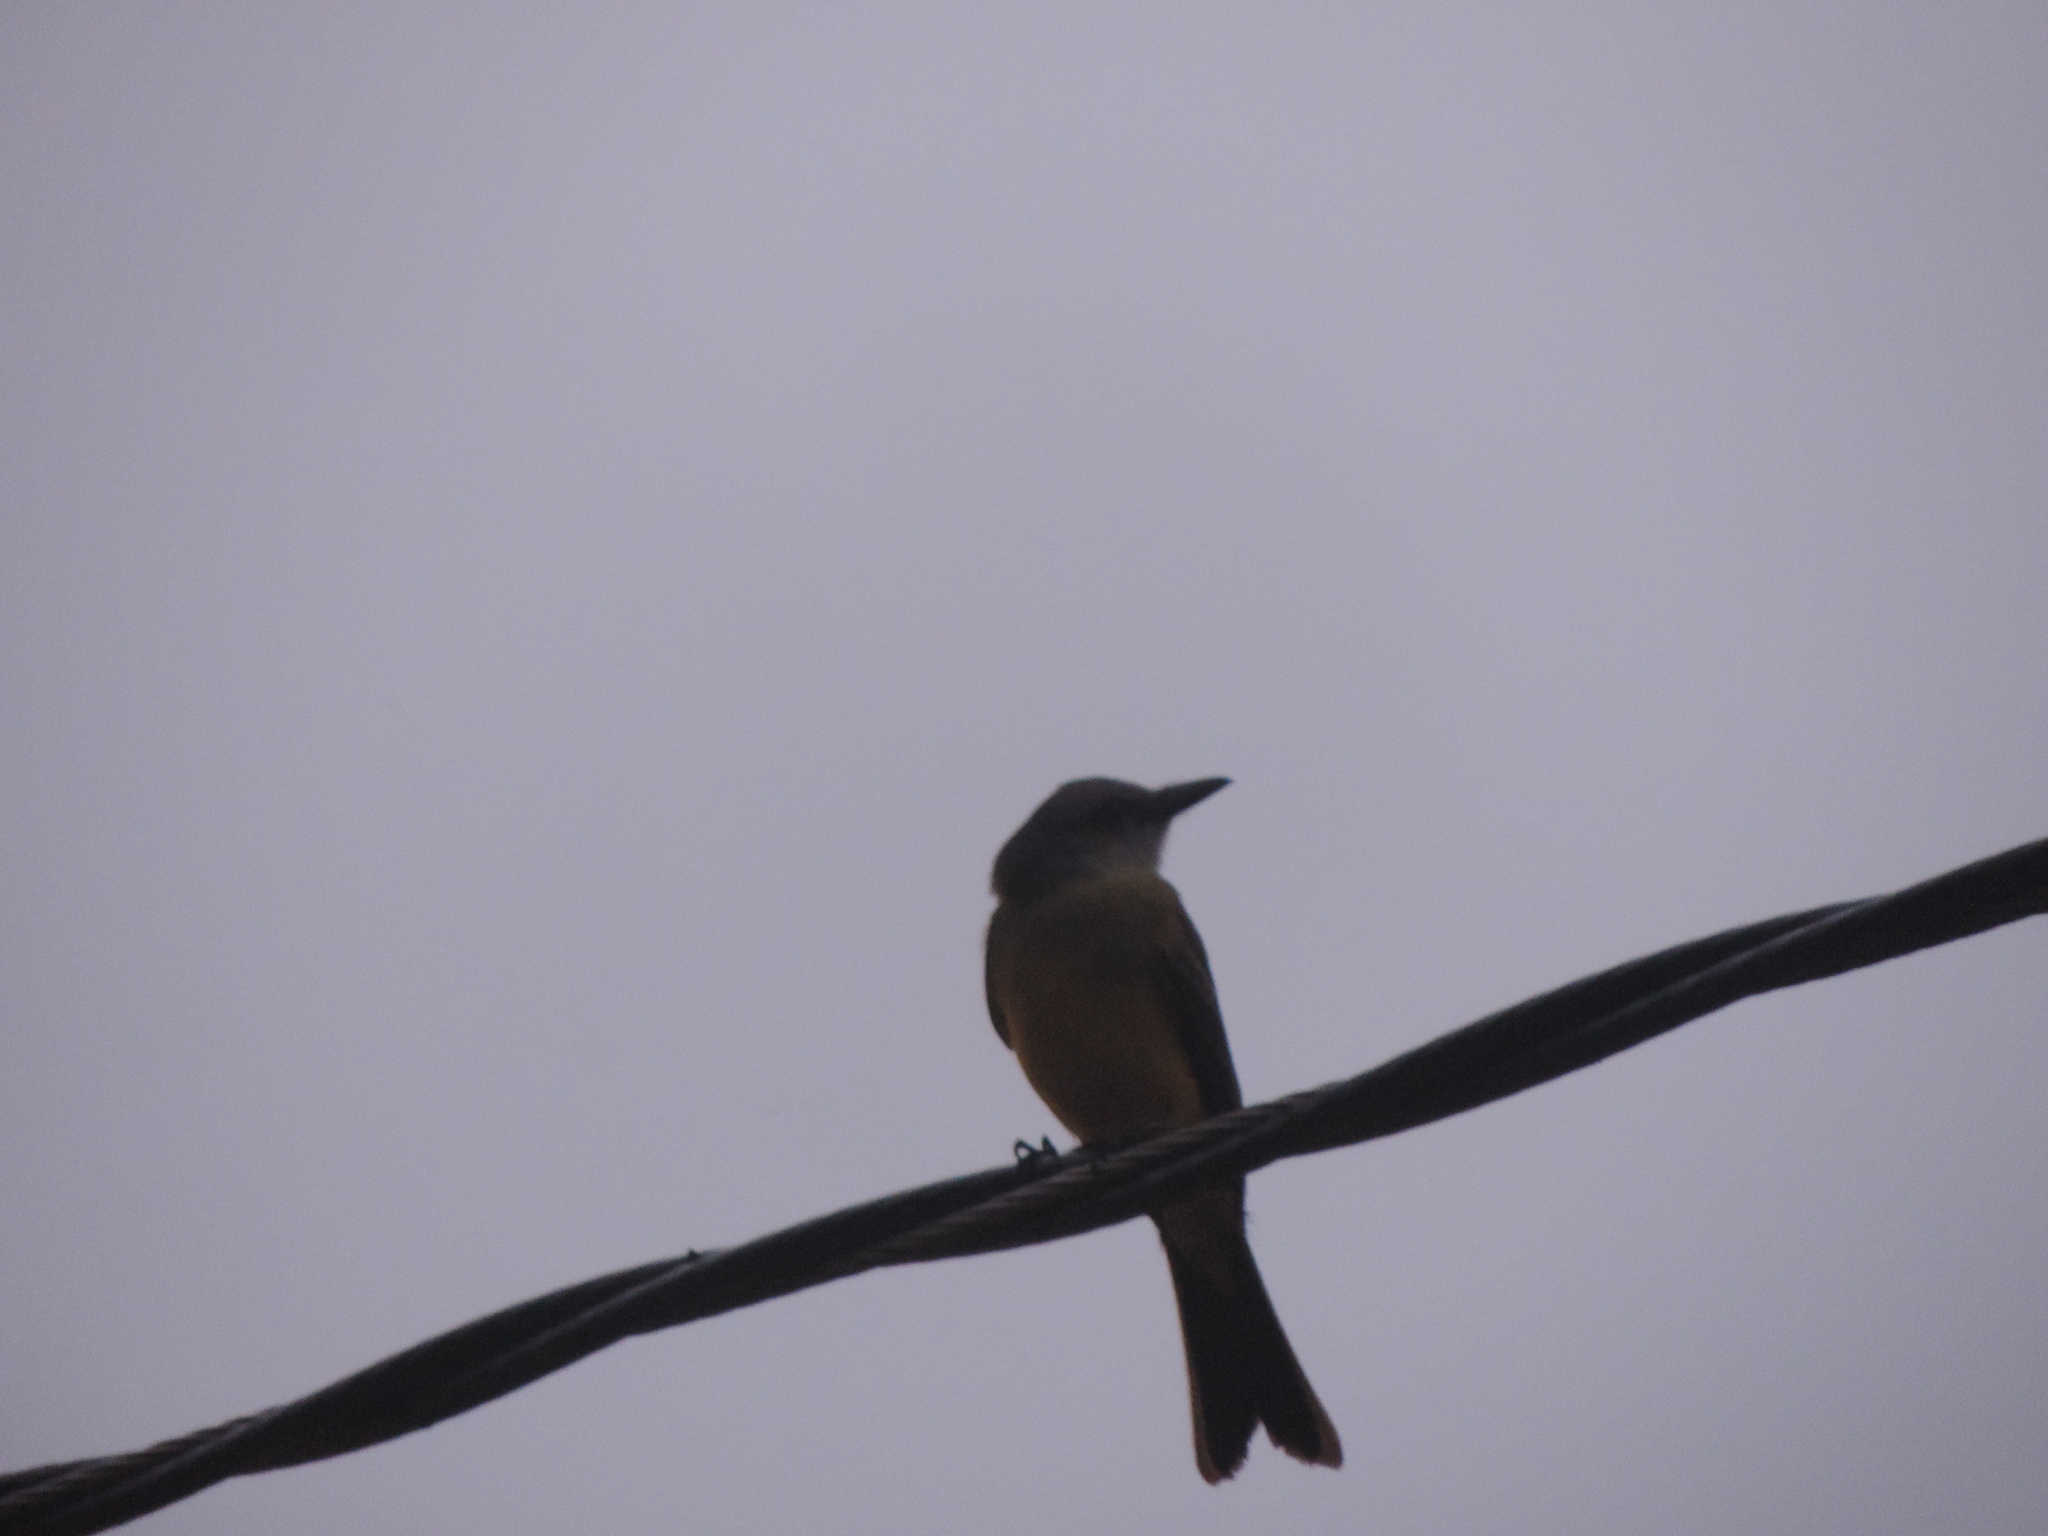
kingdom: Animalia
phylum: Chordata
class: Aves
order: Passeriformes
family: Tyrannidae
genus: Tyrannus
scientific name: Tyrannus melancholicus
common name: Tropical kingbird
